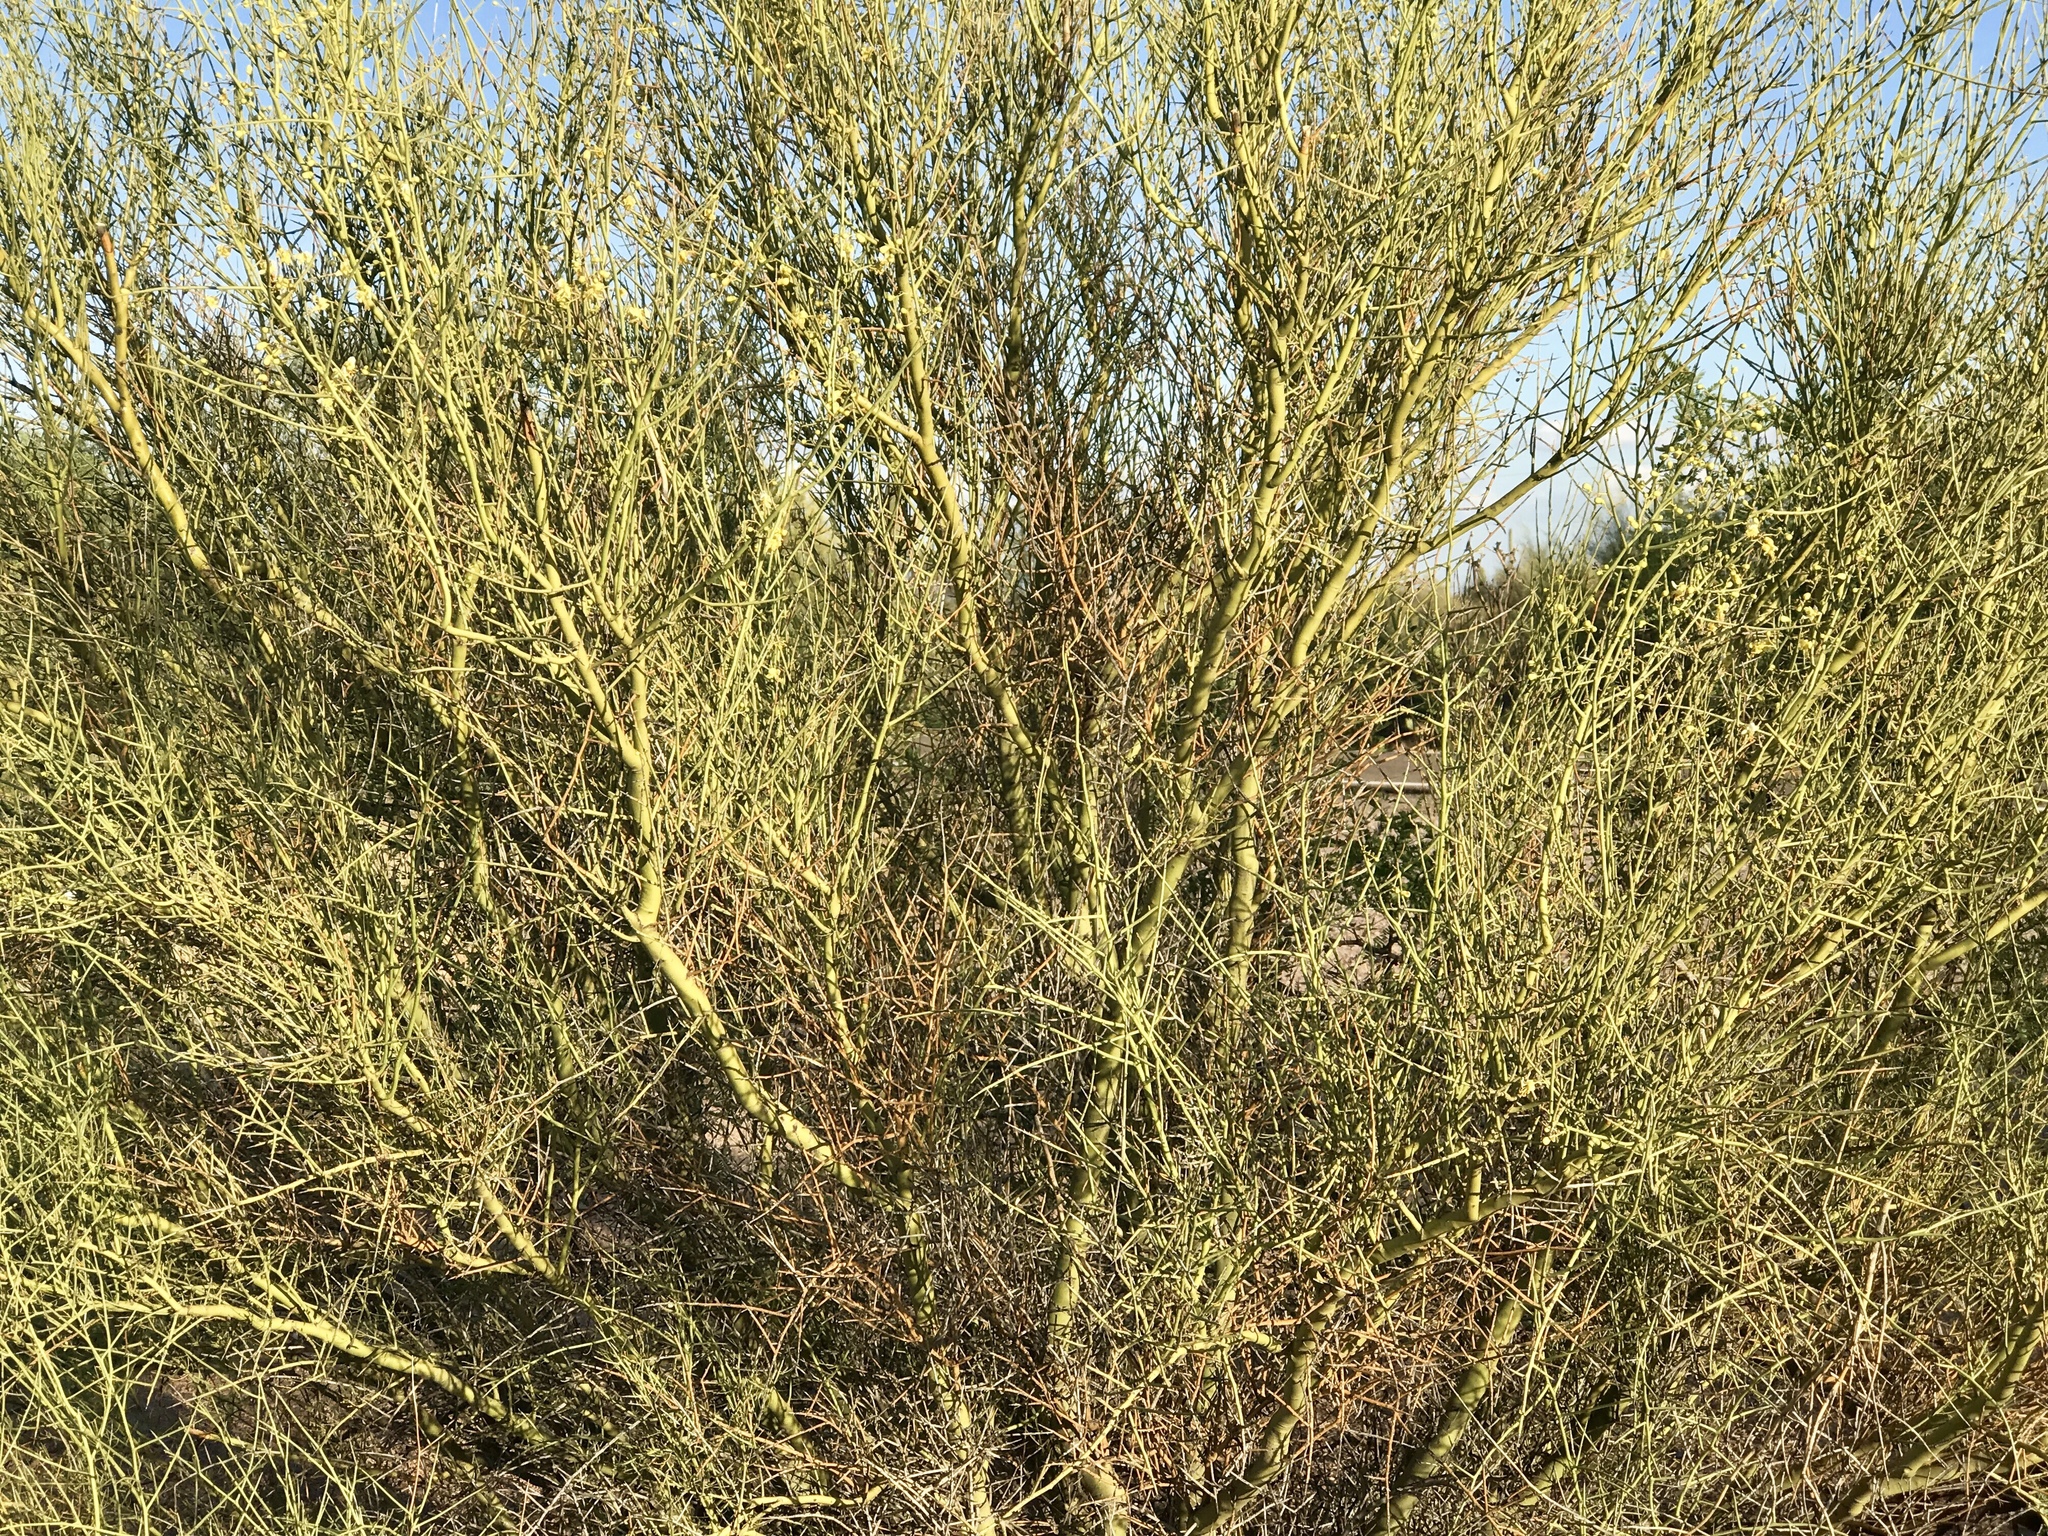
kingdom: Plantae
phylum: Tracheophyta
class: Magnoliopsida
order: Fabales
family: Fabaceae
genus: Parkinsonia
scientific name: Parkinsonia microphylla
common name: Yellow paloverde
